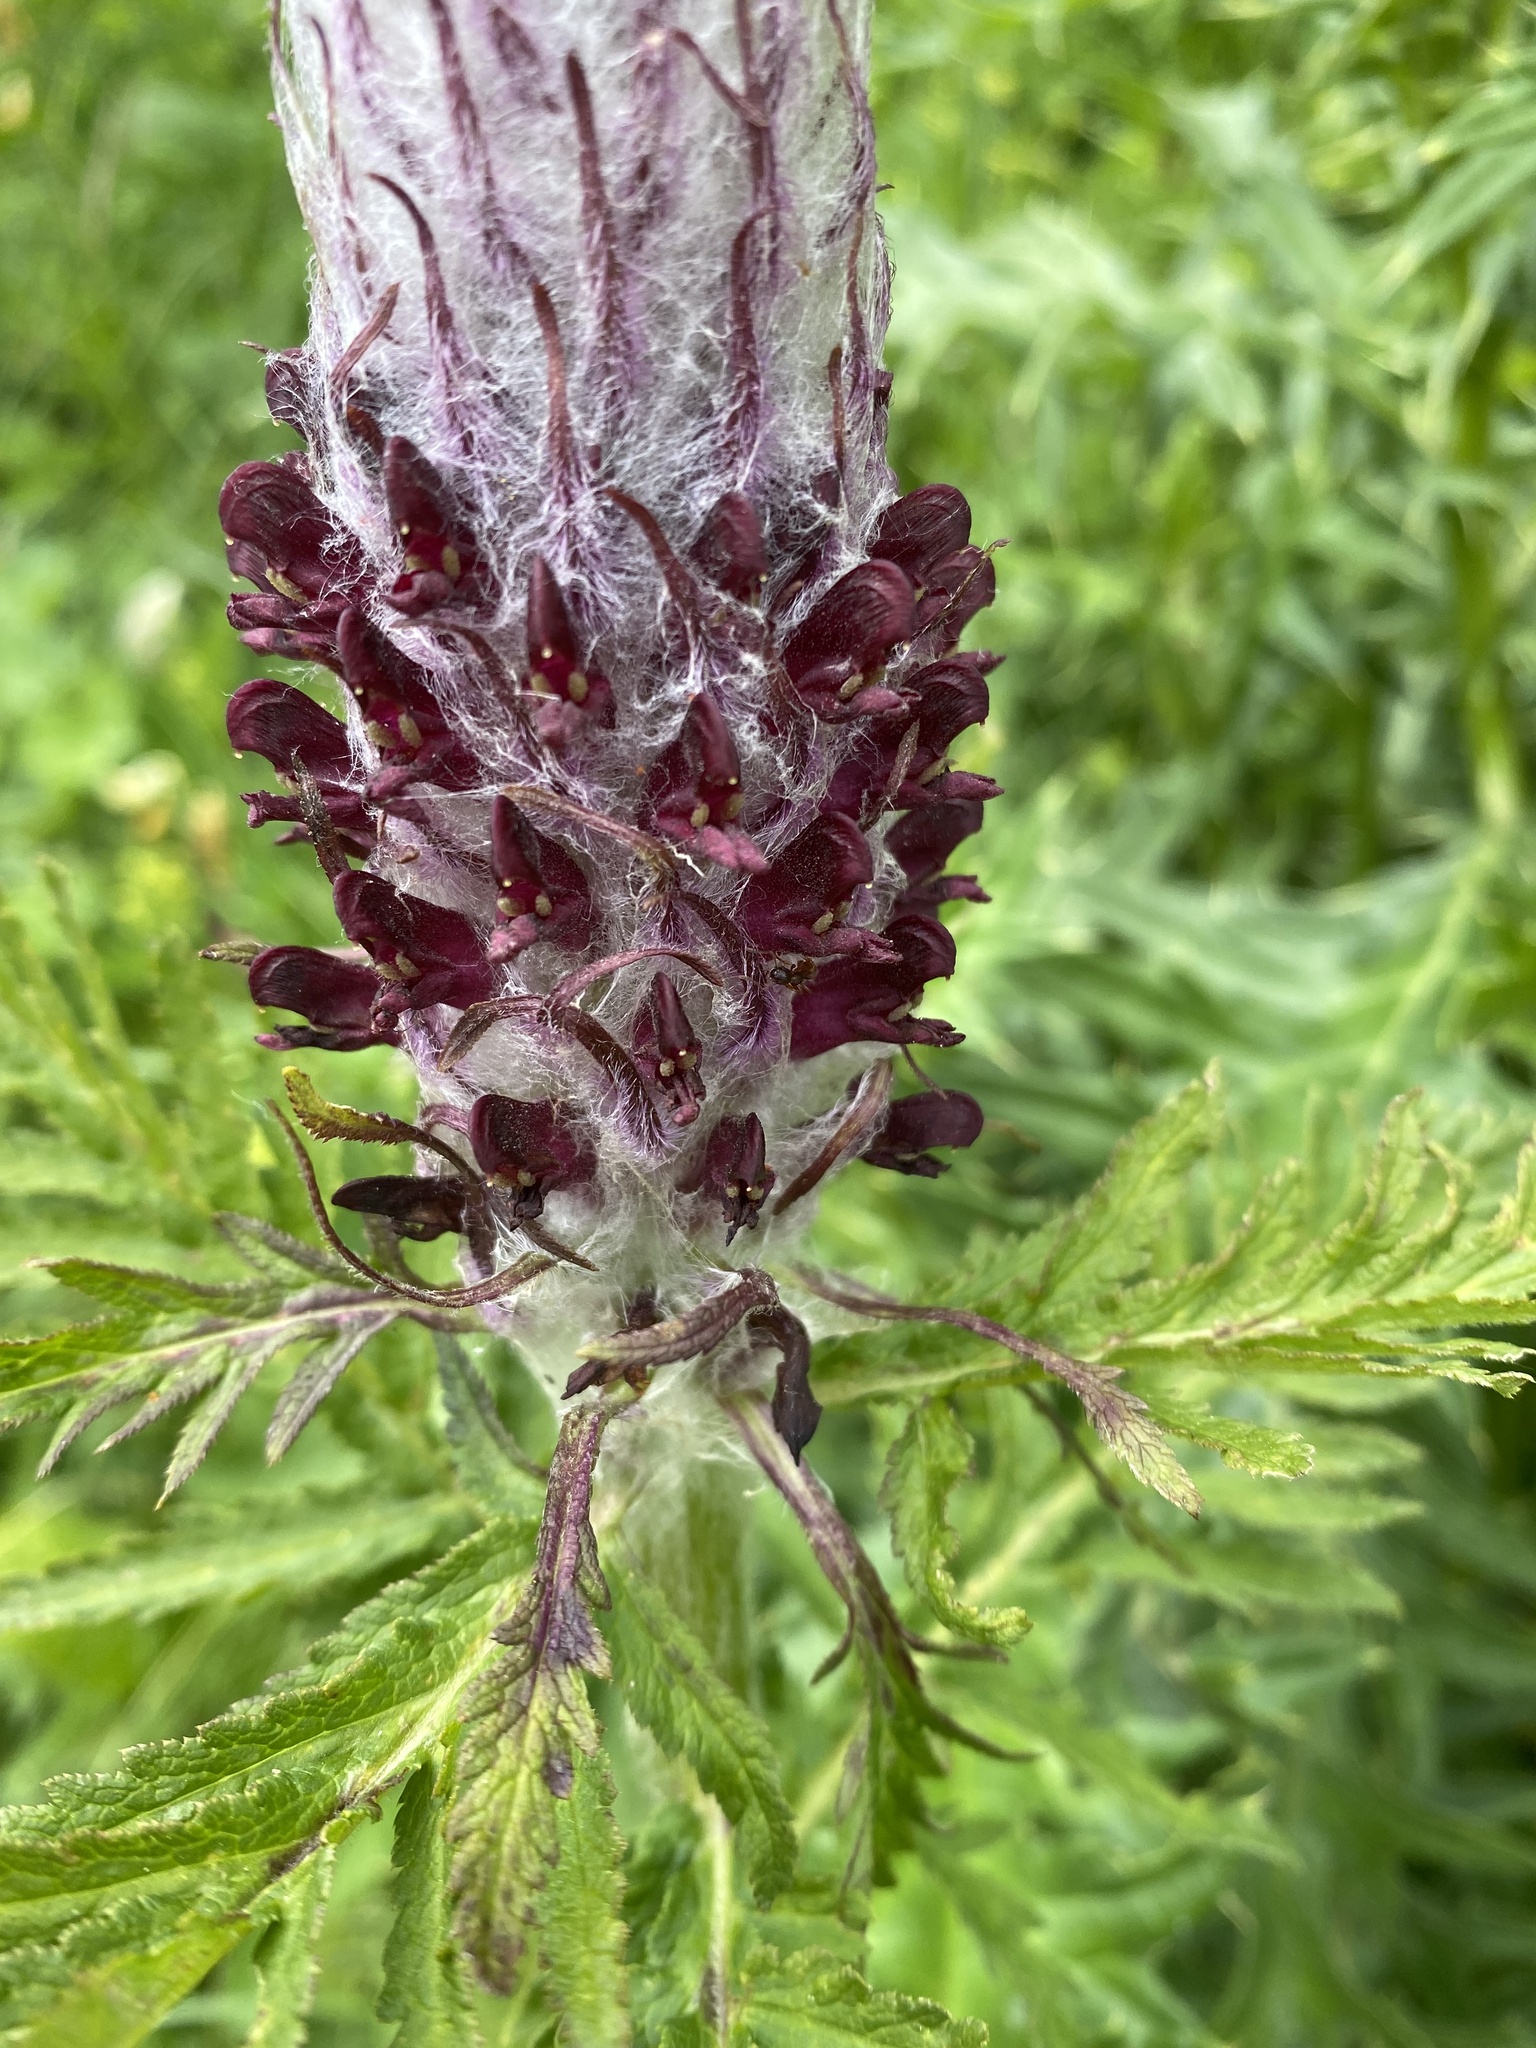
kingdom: Plantae
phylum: Tracheophyta
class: Magnoliopsida
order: Lamiales
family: Orobanchaceae
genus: Pedicularis
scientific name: Pedicularis atropurpurea
